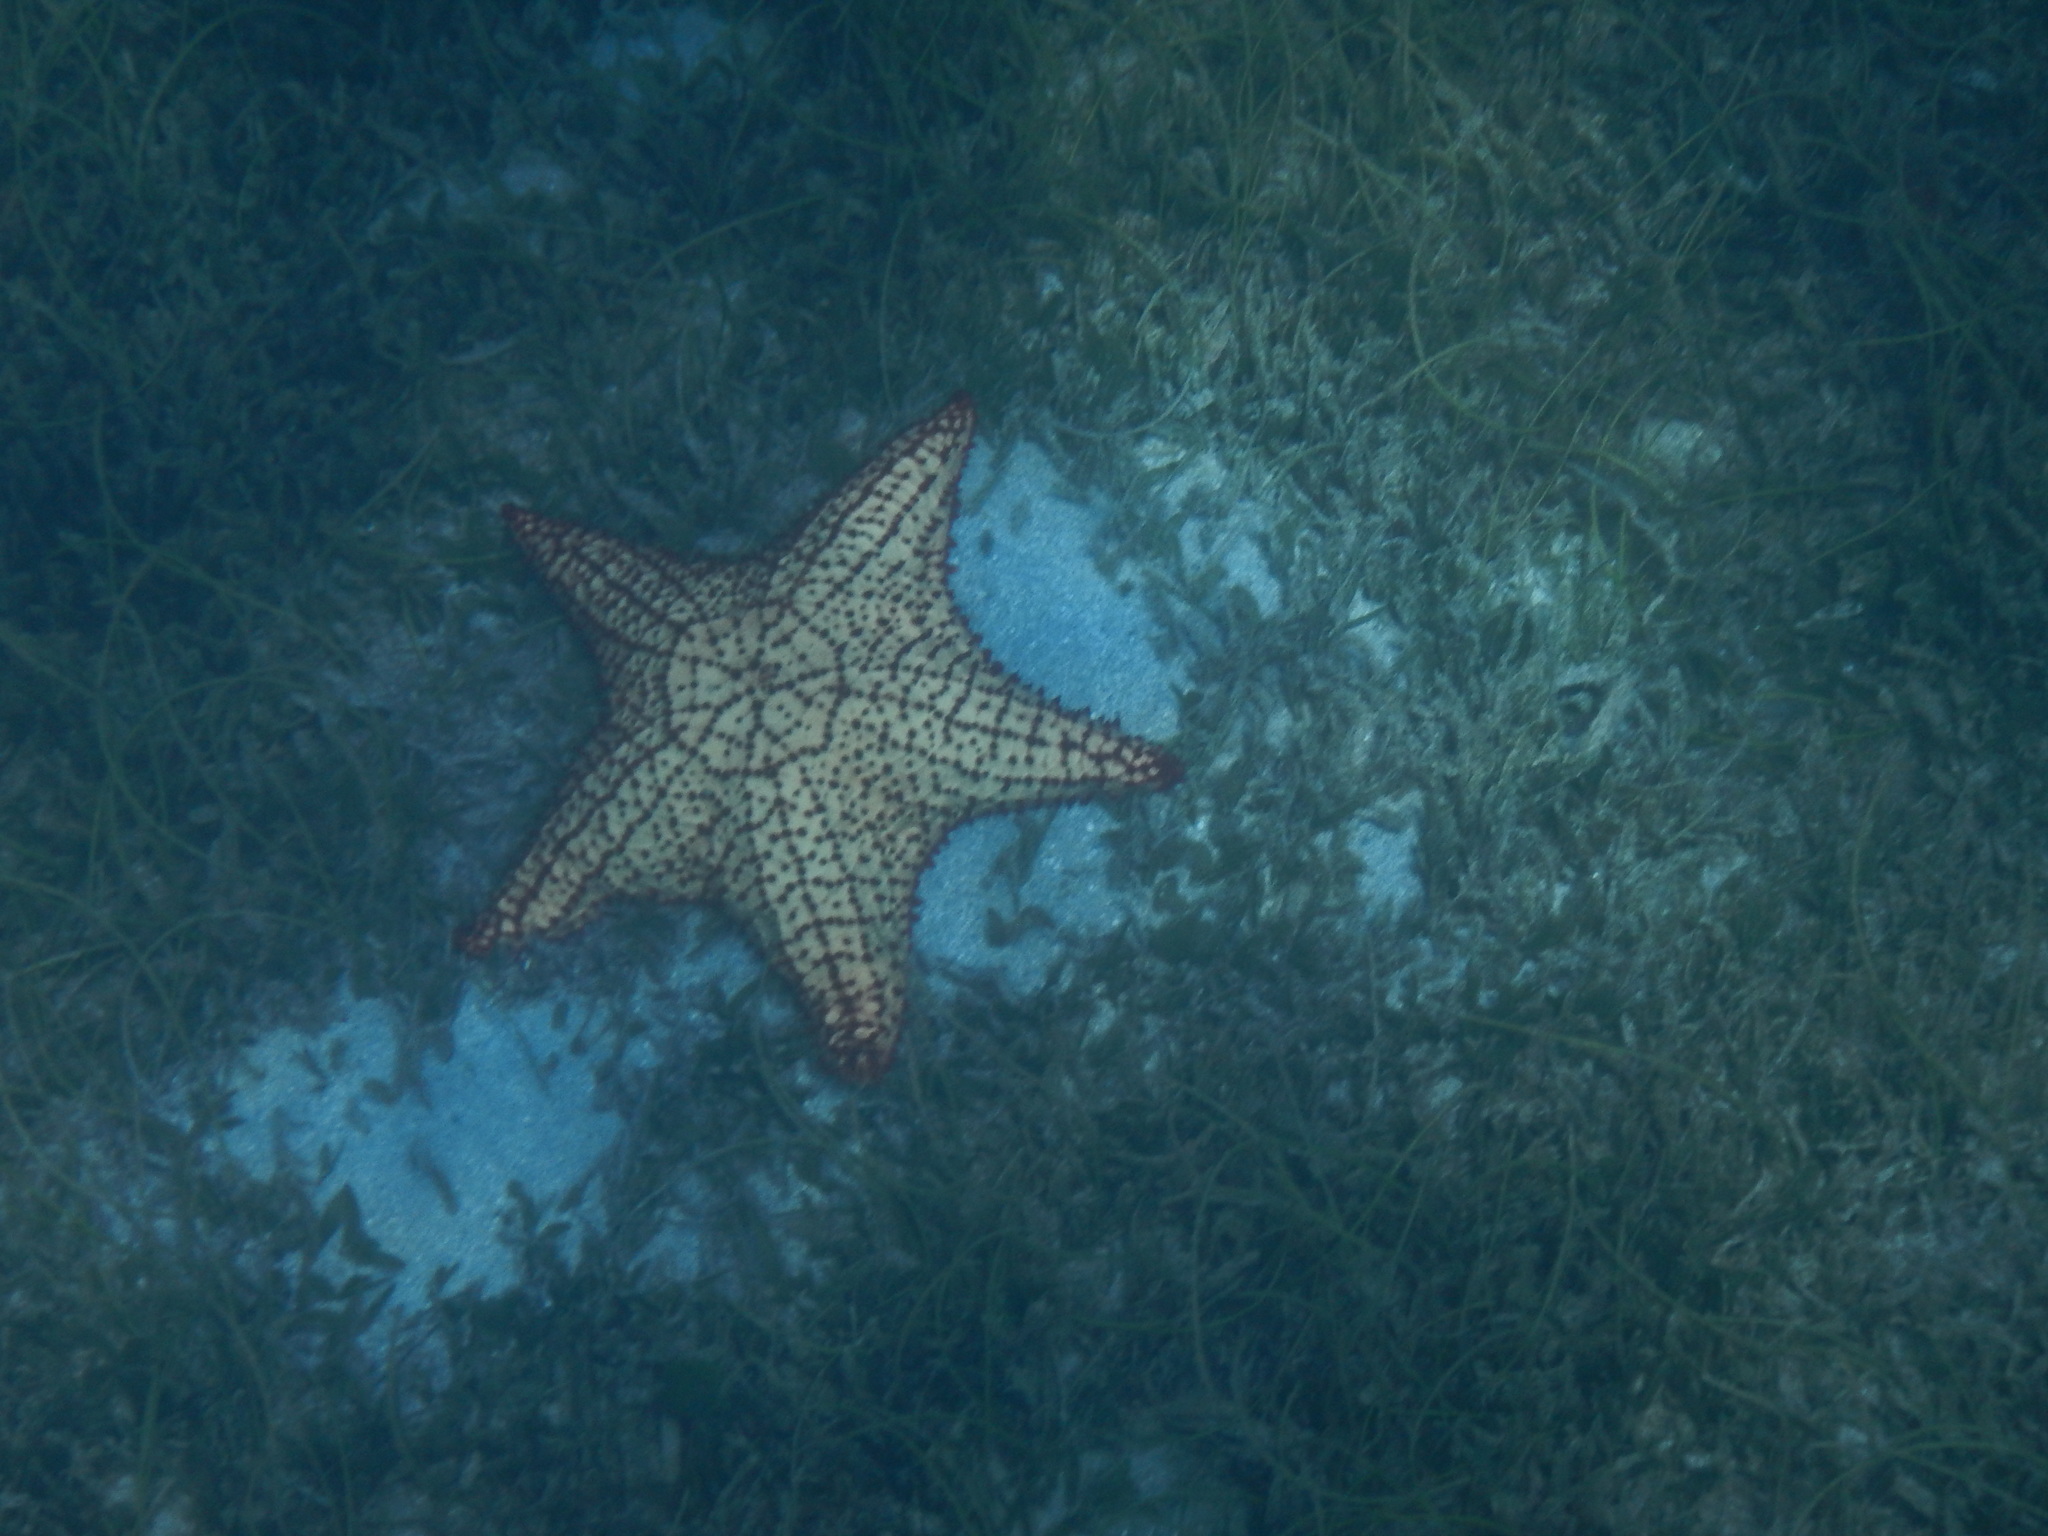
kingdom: Animalia
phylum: Echinodermata
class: Asteroidea
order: Valvatida
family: Oreasteridae
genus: Oreaster
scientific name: Oreaster reticulatus
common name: Cushion sea star
